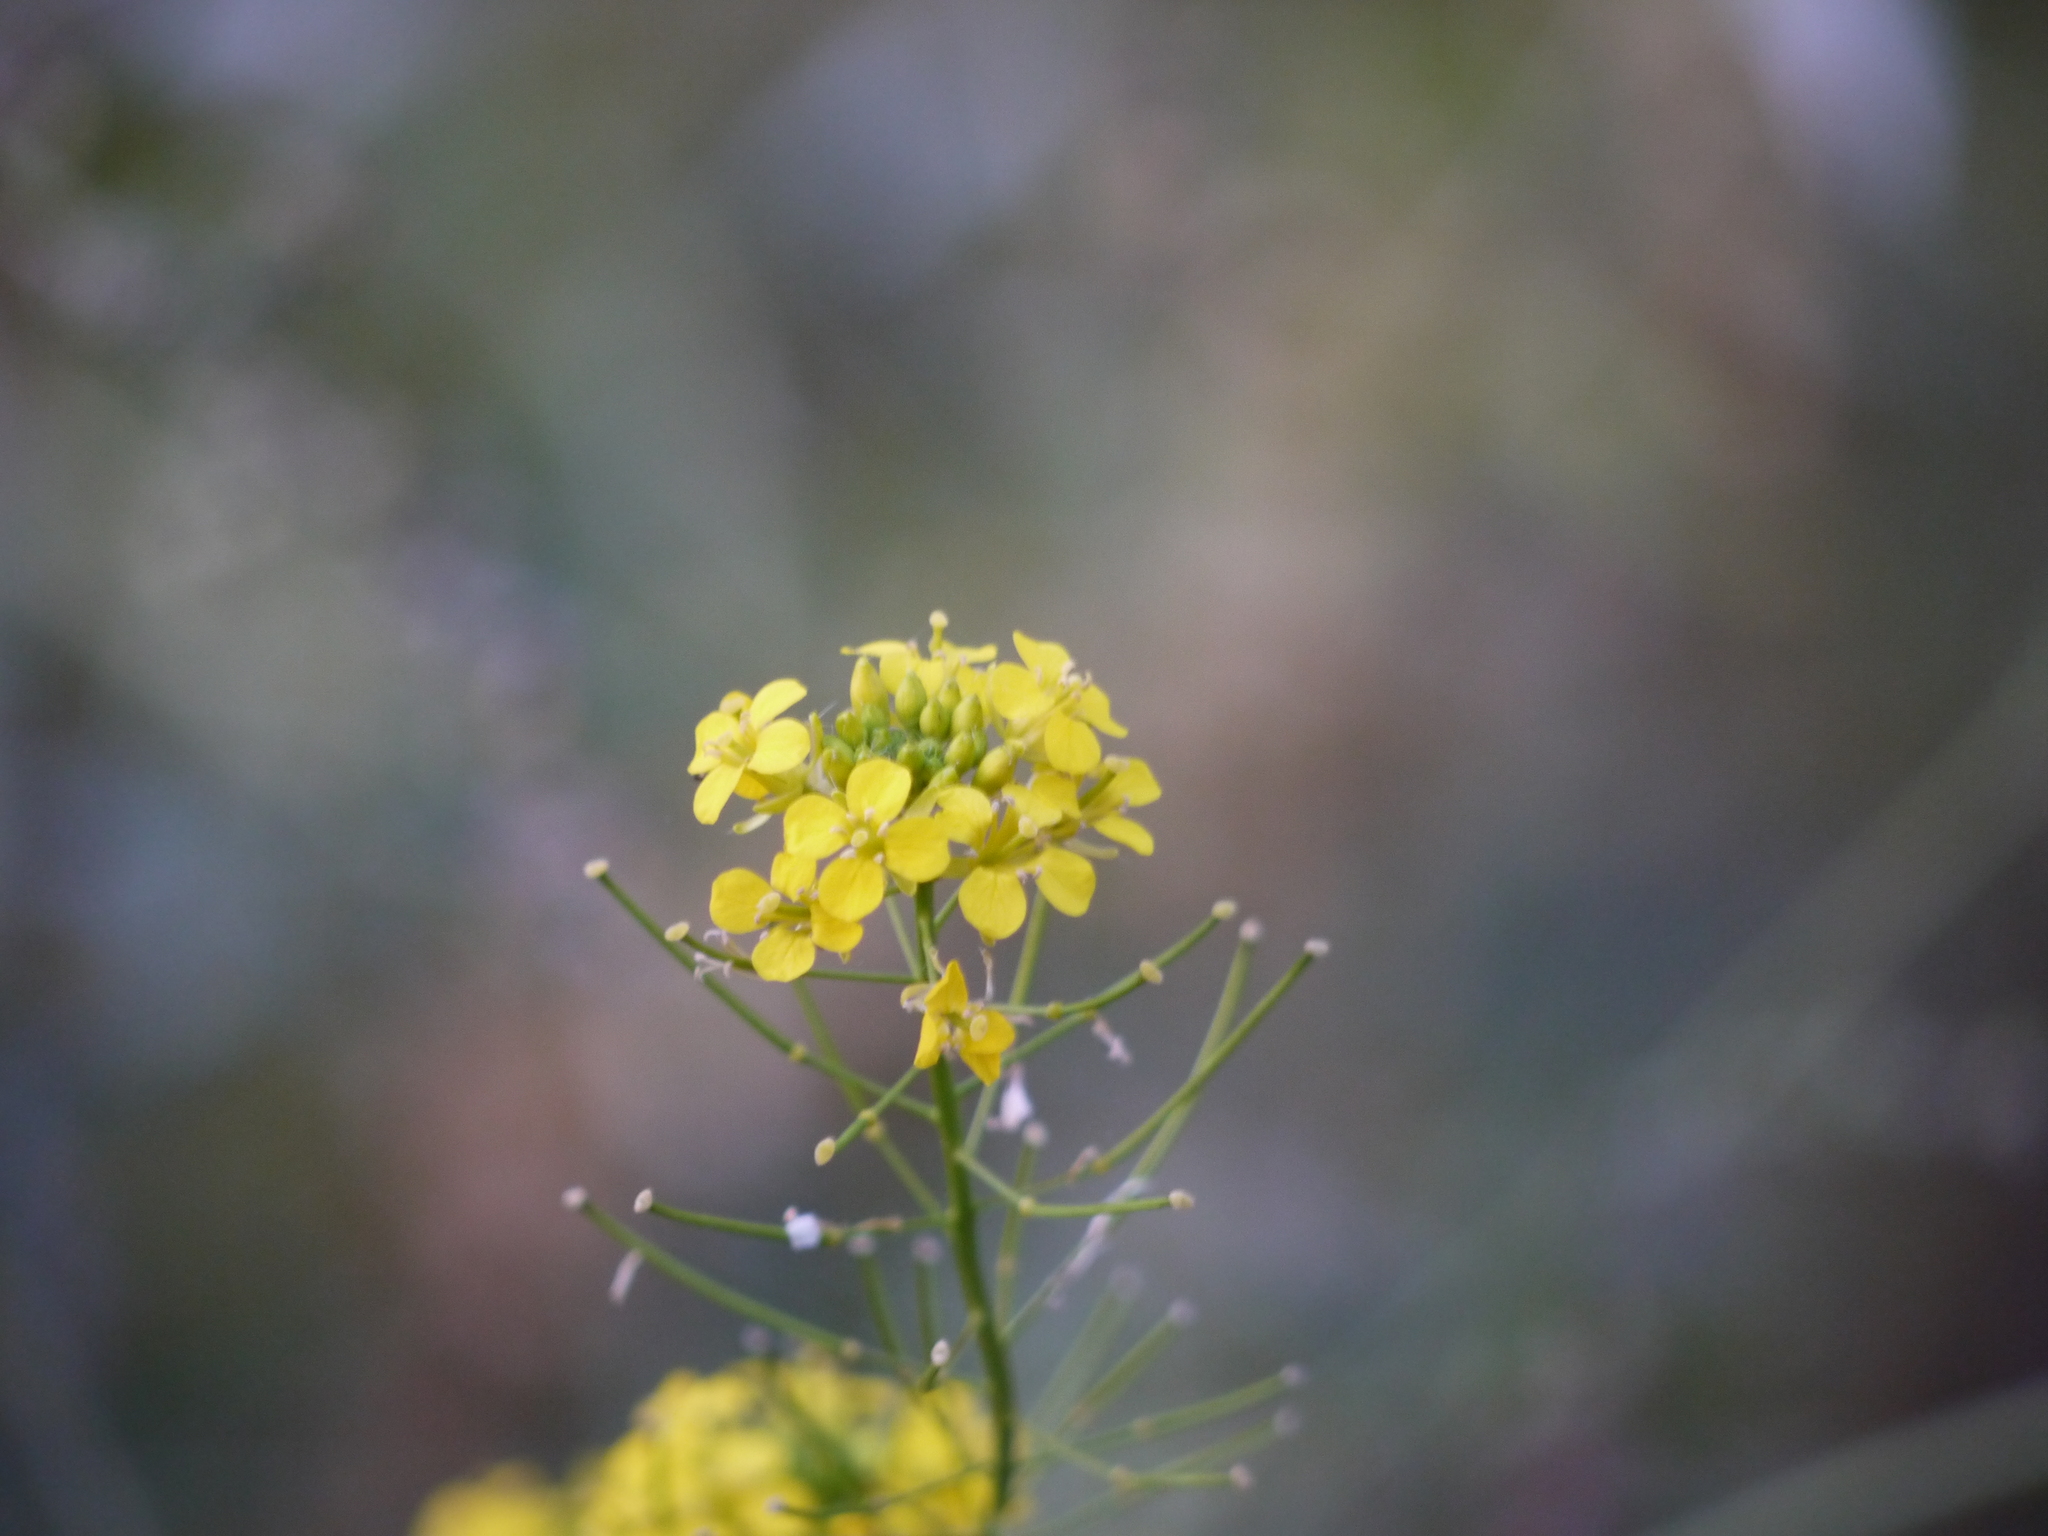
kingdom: Plantae
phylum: Tracheophyta
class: Magnoliopsida
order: Brassicales
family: Brassicaceae
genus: Brassica
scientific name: Brassica rapa
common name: Field mustard
